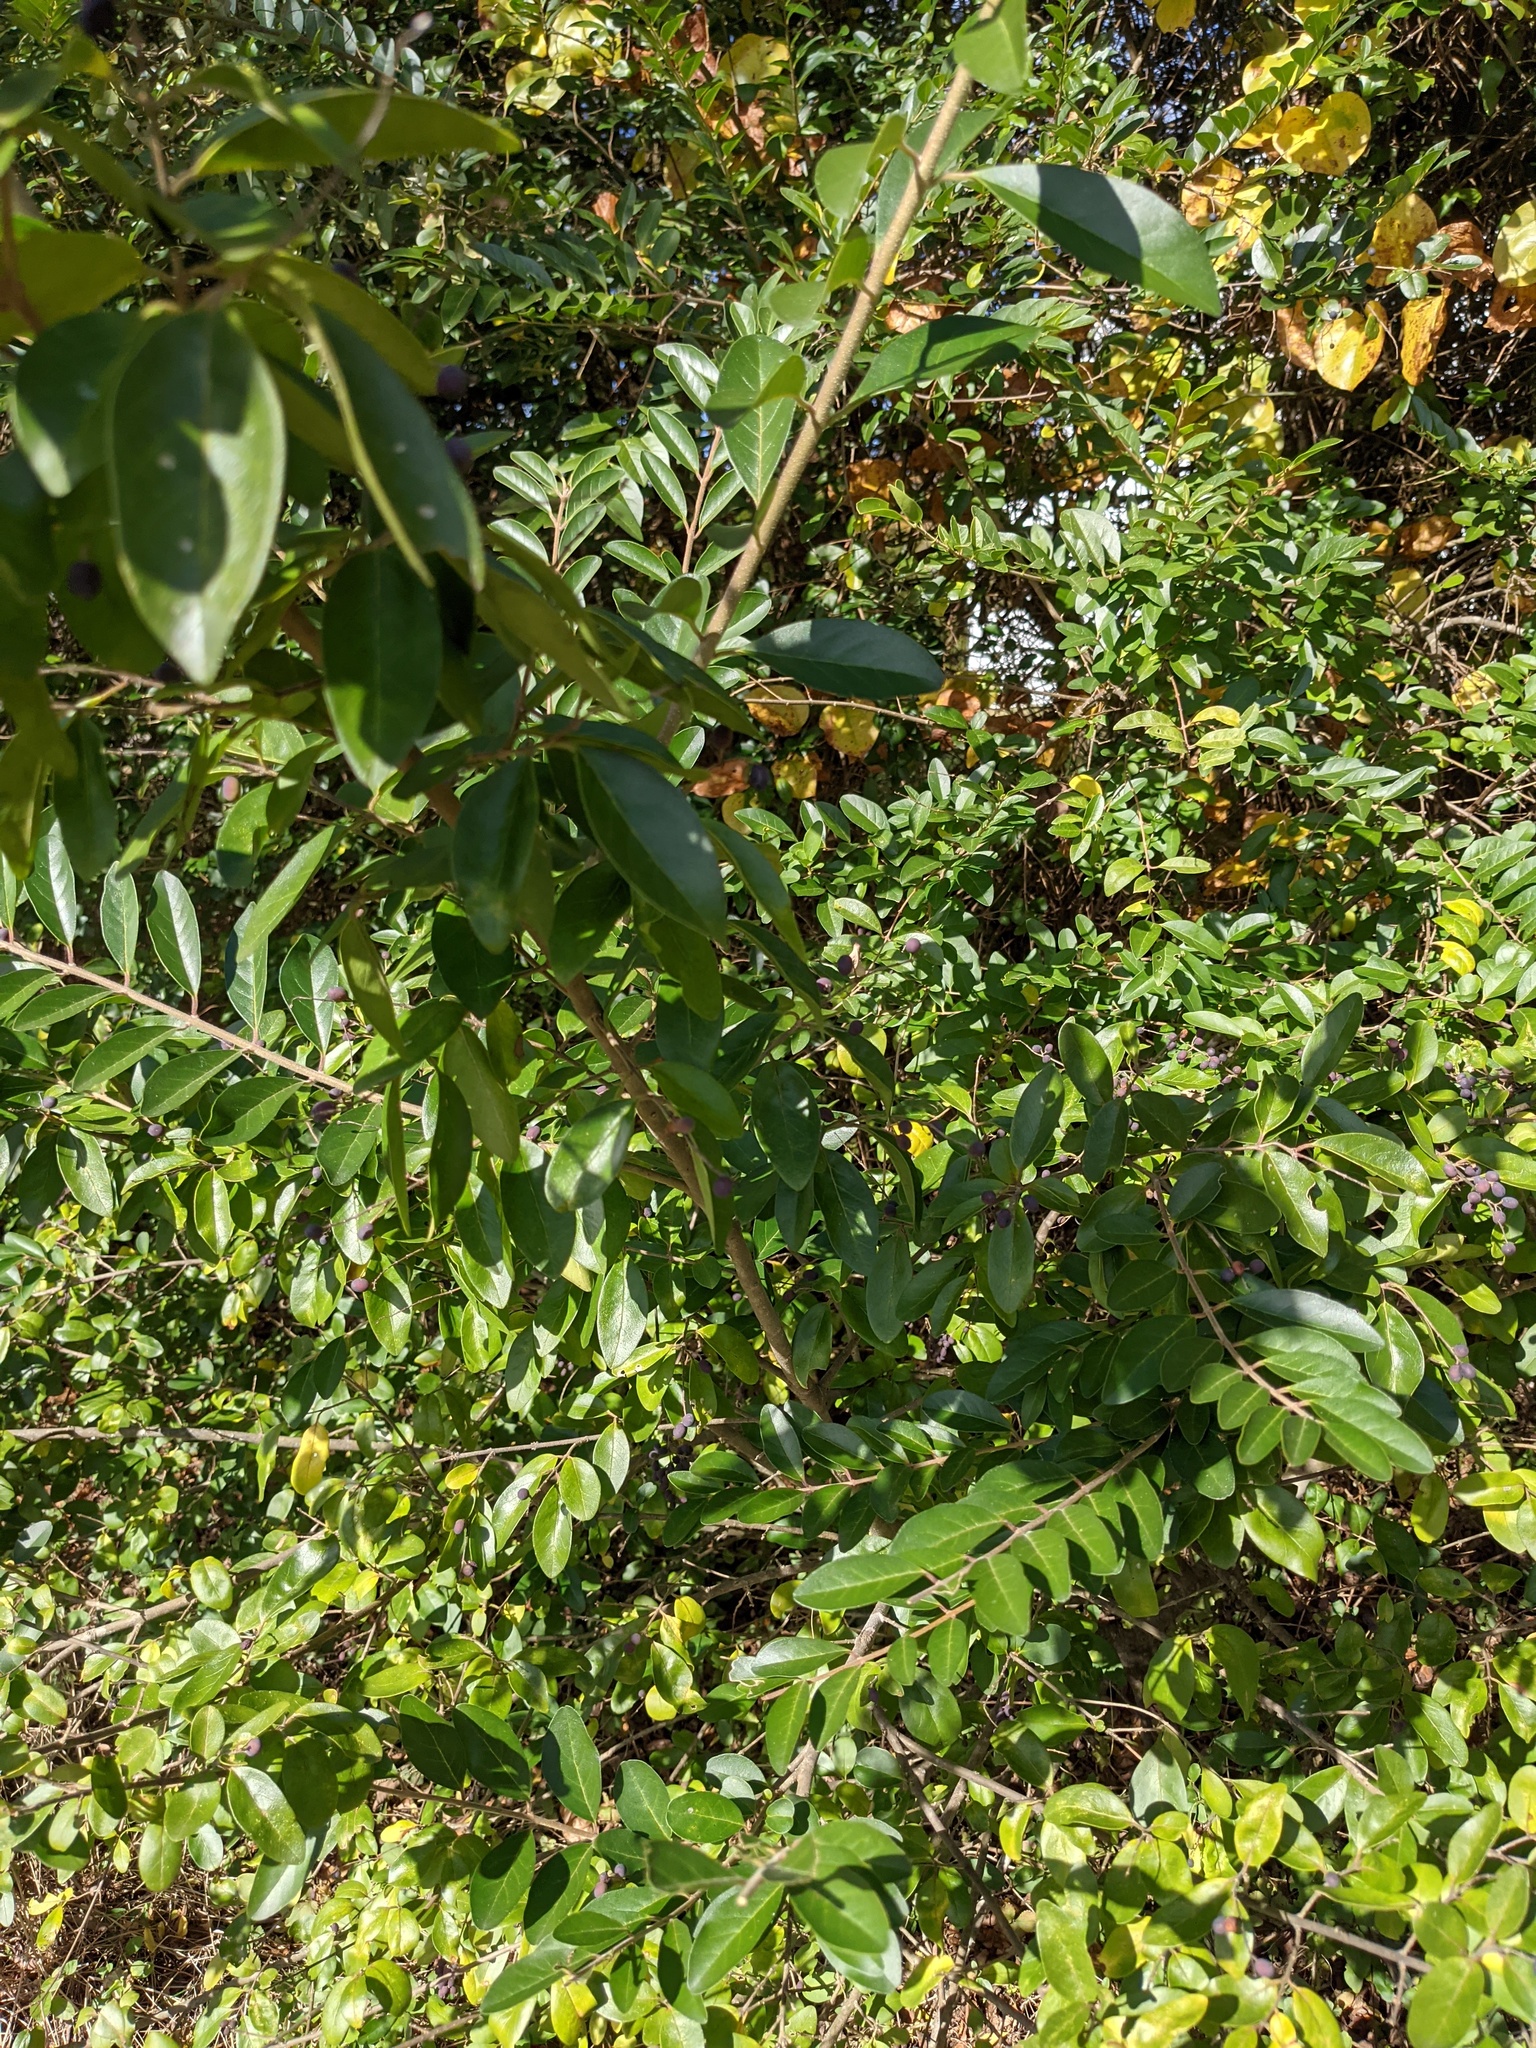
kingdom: Plantae
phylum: Tracheophyta
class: Magnoliopsida
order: Lamiales
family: Oleaceae
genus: Ligustrum
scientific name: Ligustrum sinense
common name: Chinese privet
